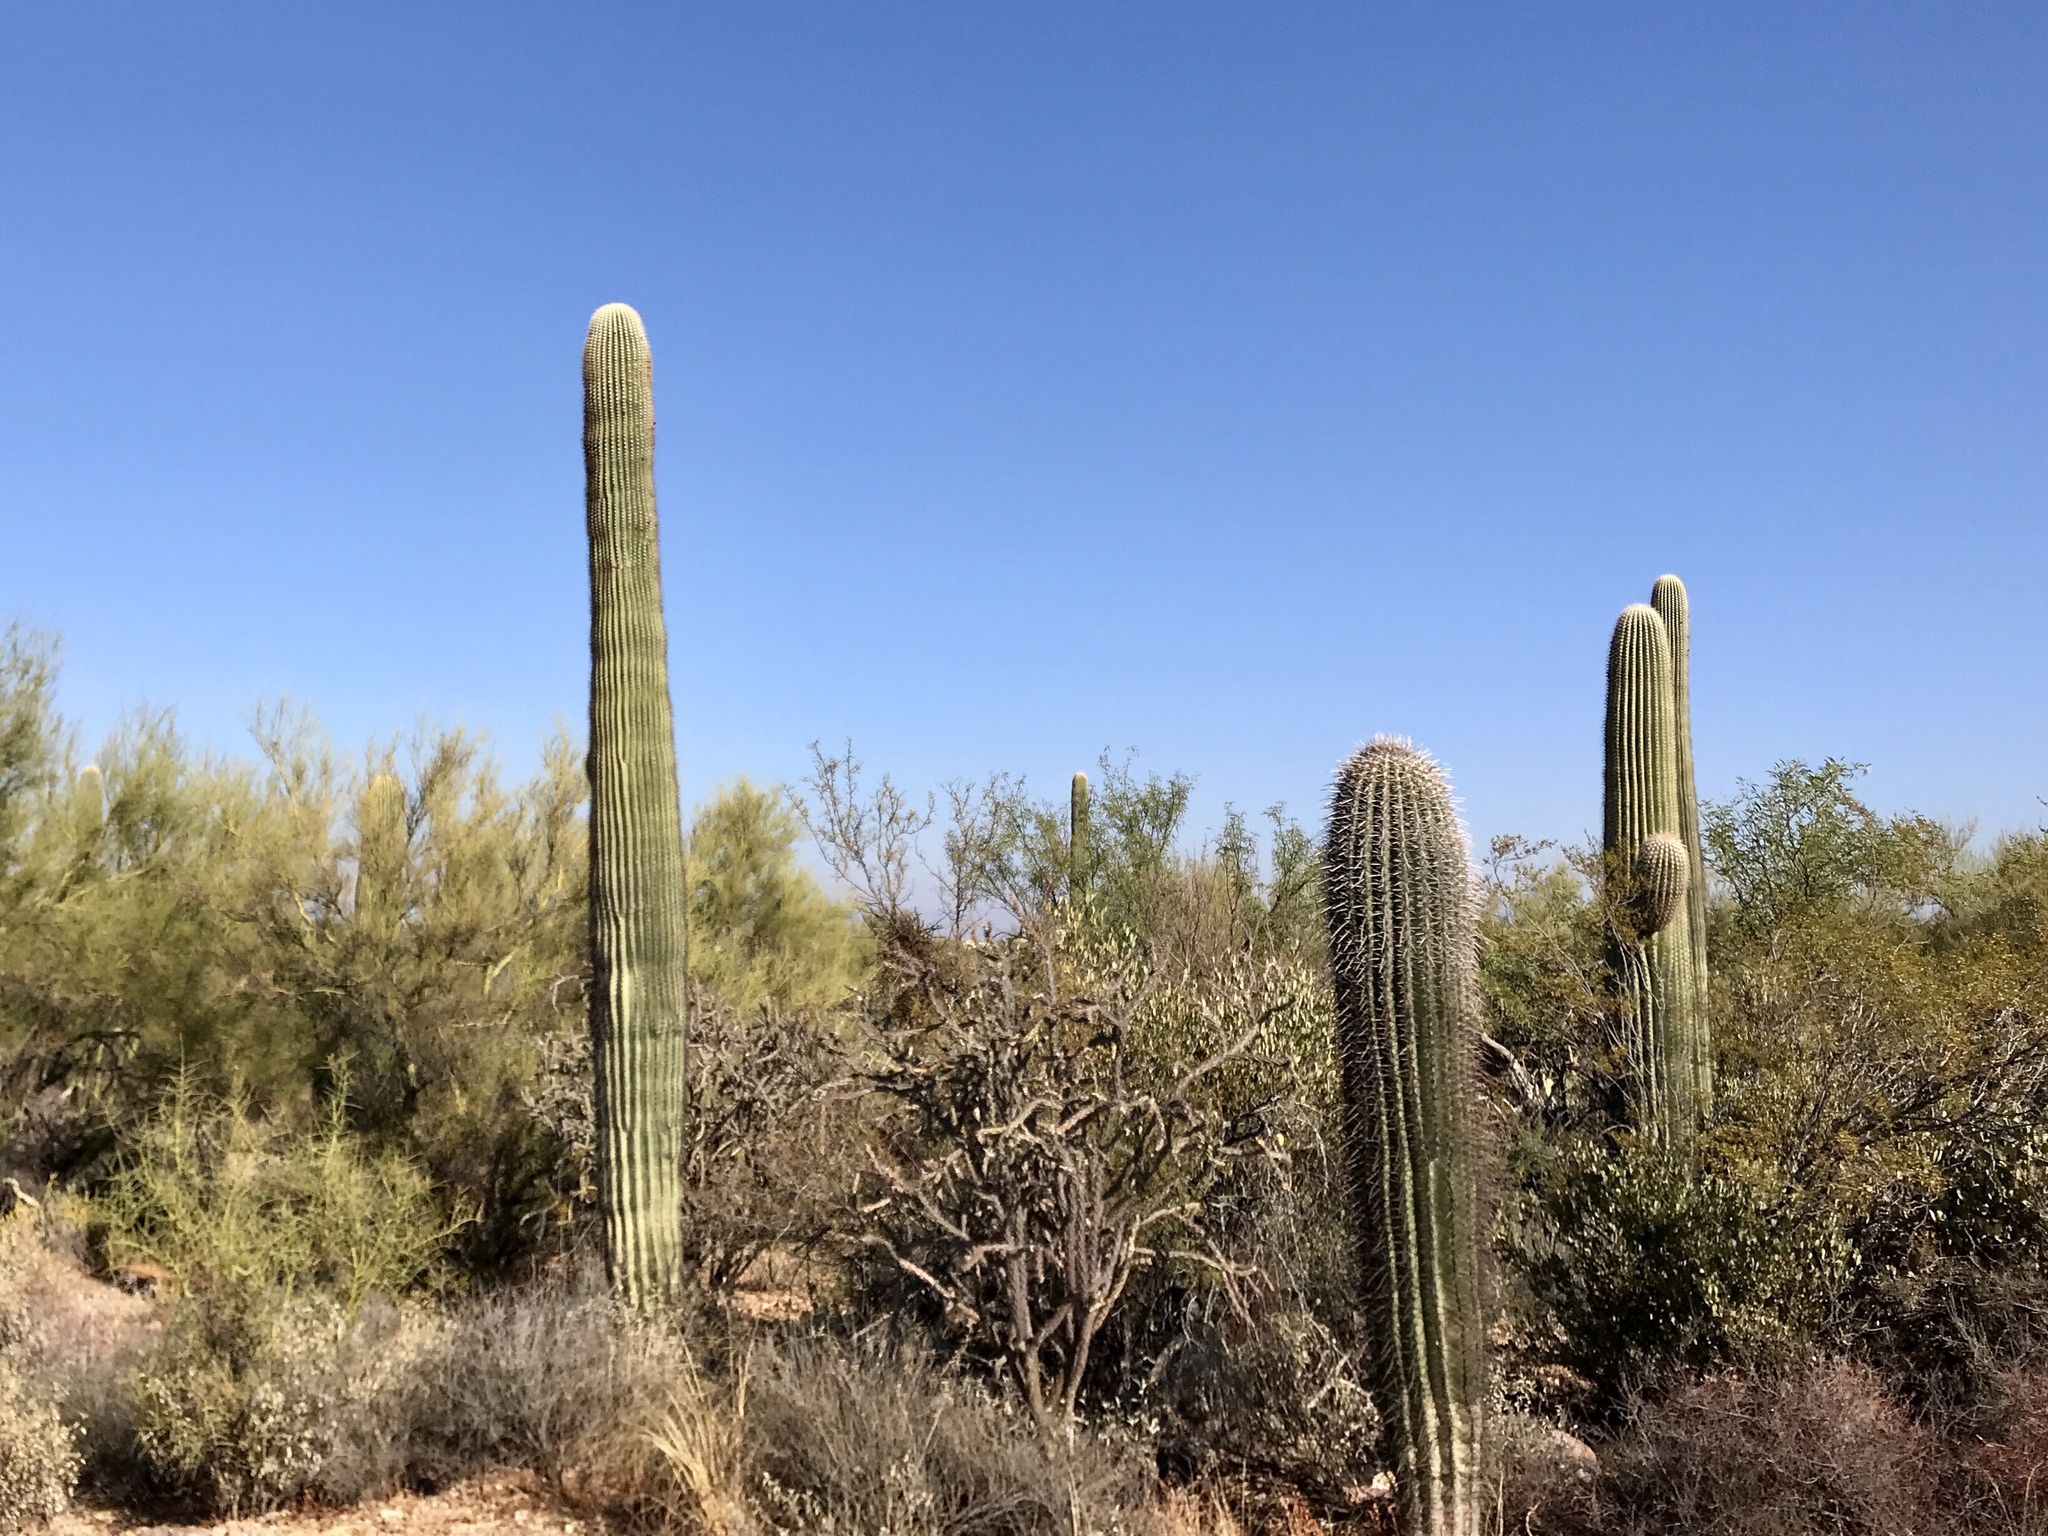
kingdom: Plantae
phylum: Tracheophyta
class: Magnoliopsida
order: Caryophyllales
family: Cactaceae
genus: Carnegiea
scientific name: Carnegiea gigantea
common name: Saguaro
